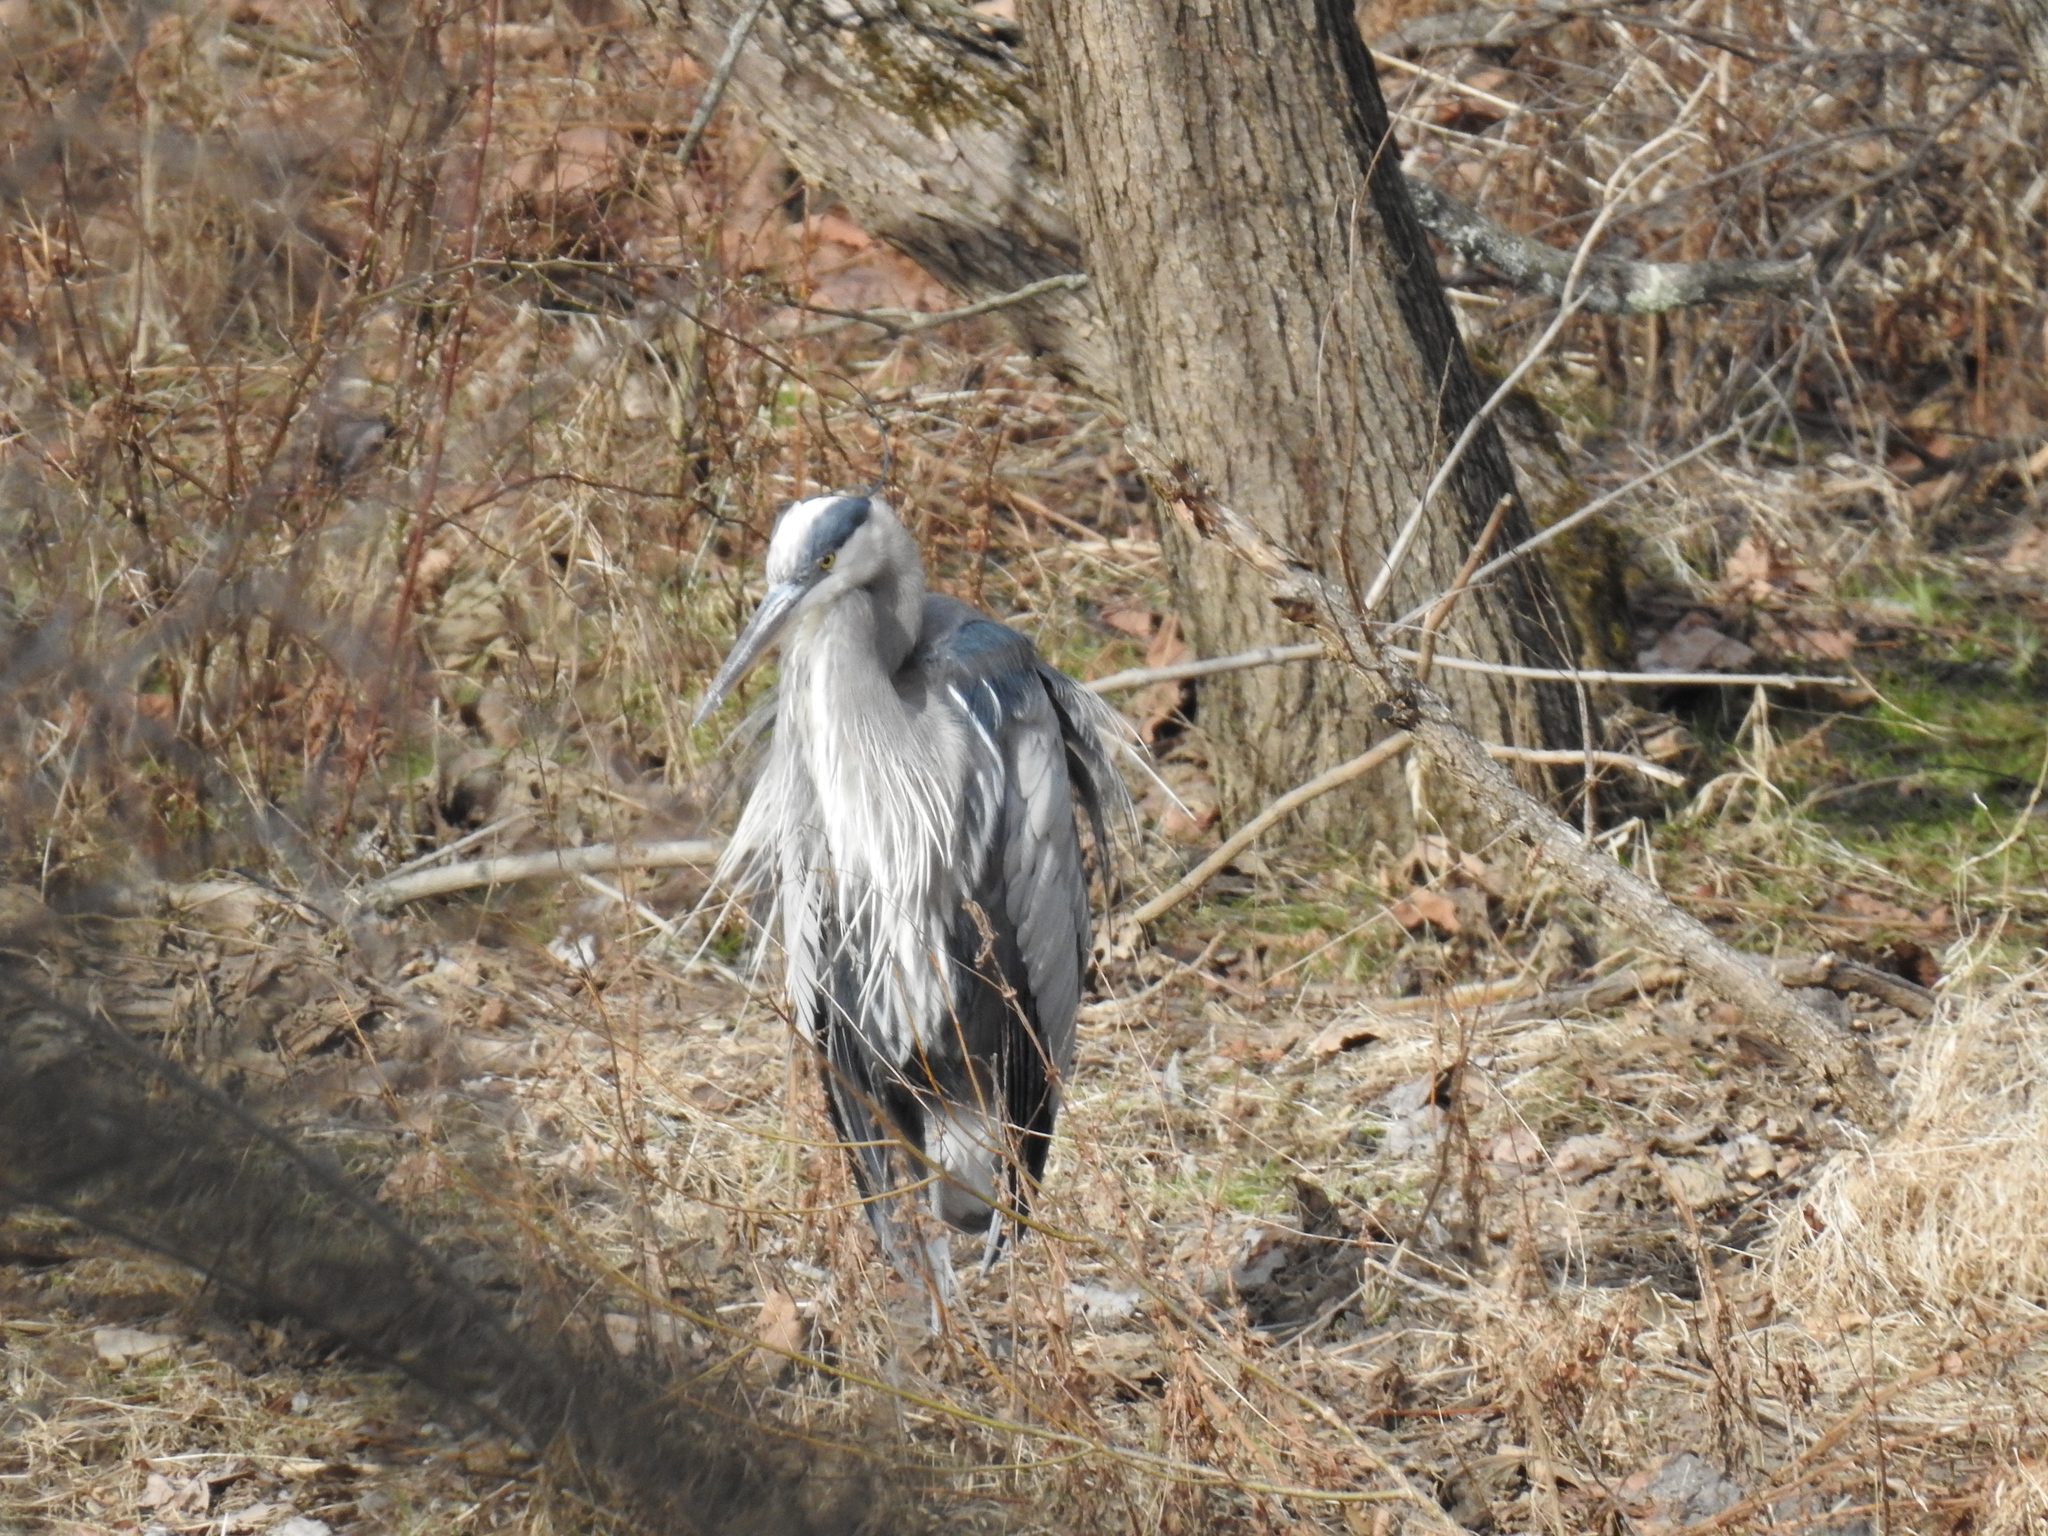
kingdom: Animalia
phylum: Chordata
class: Aves
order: Pelecaniformes
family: Ardeidae
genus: Ardea
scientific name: Ardea herodias
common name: Great blue heron
